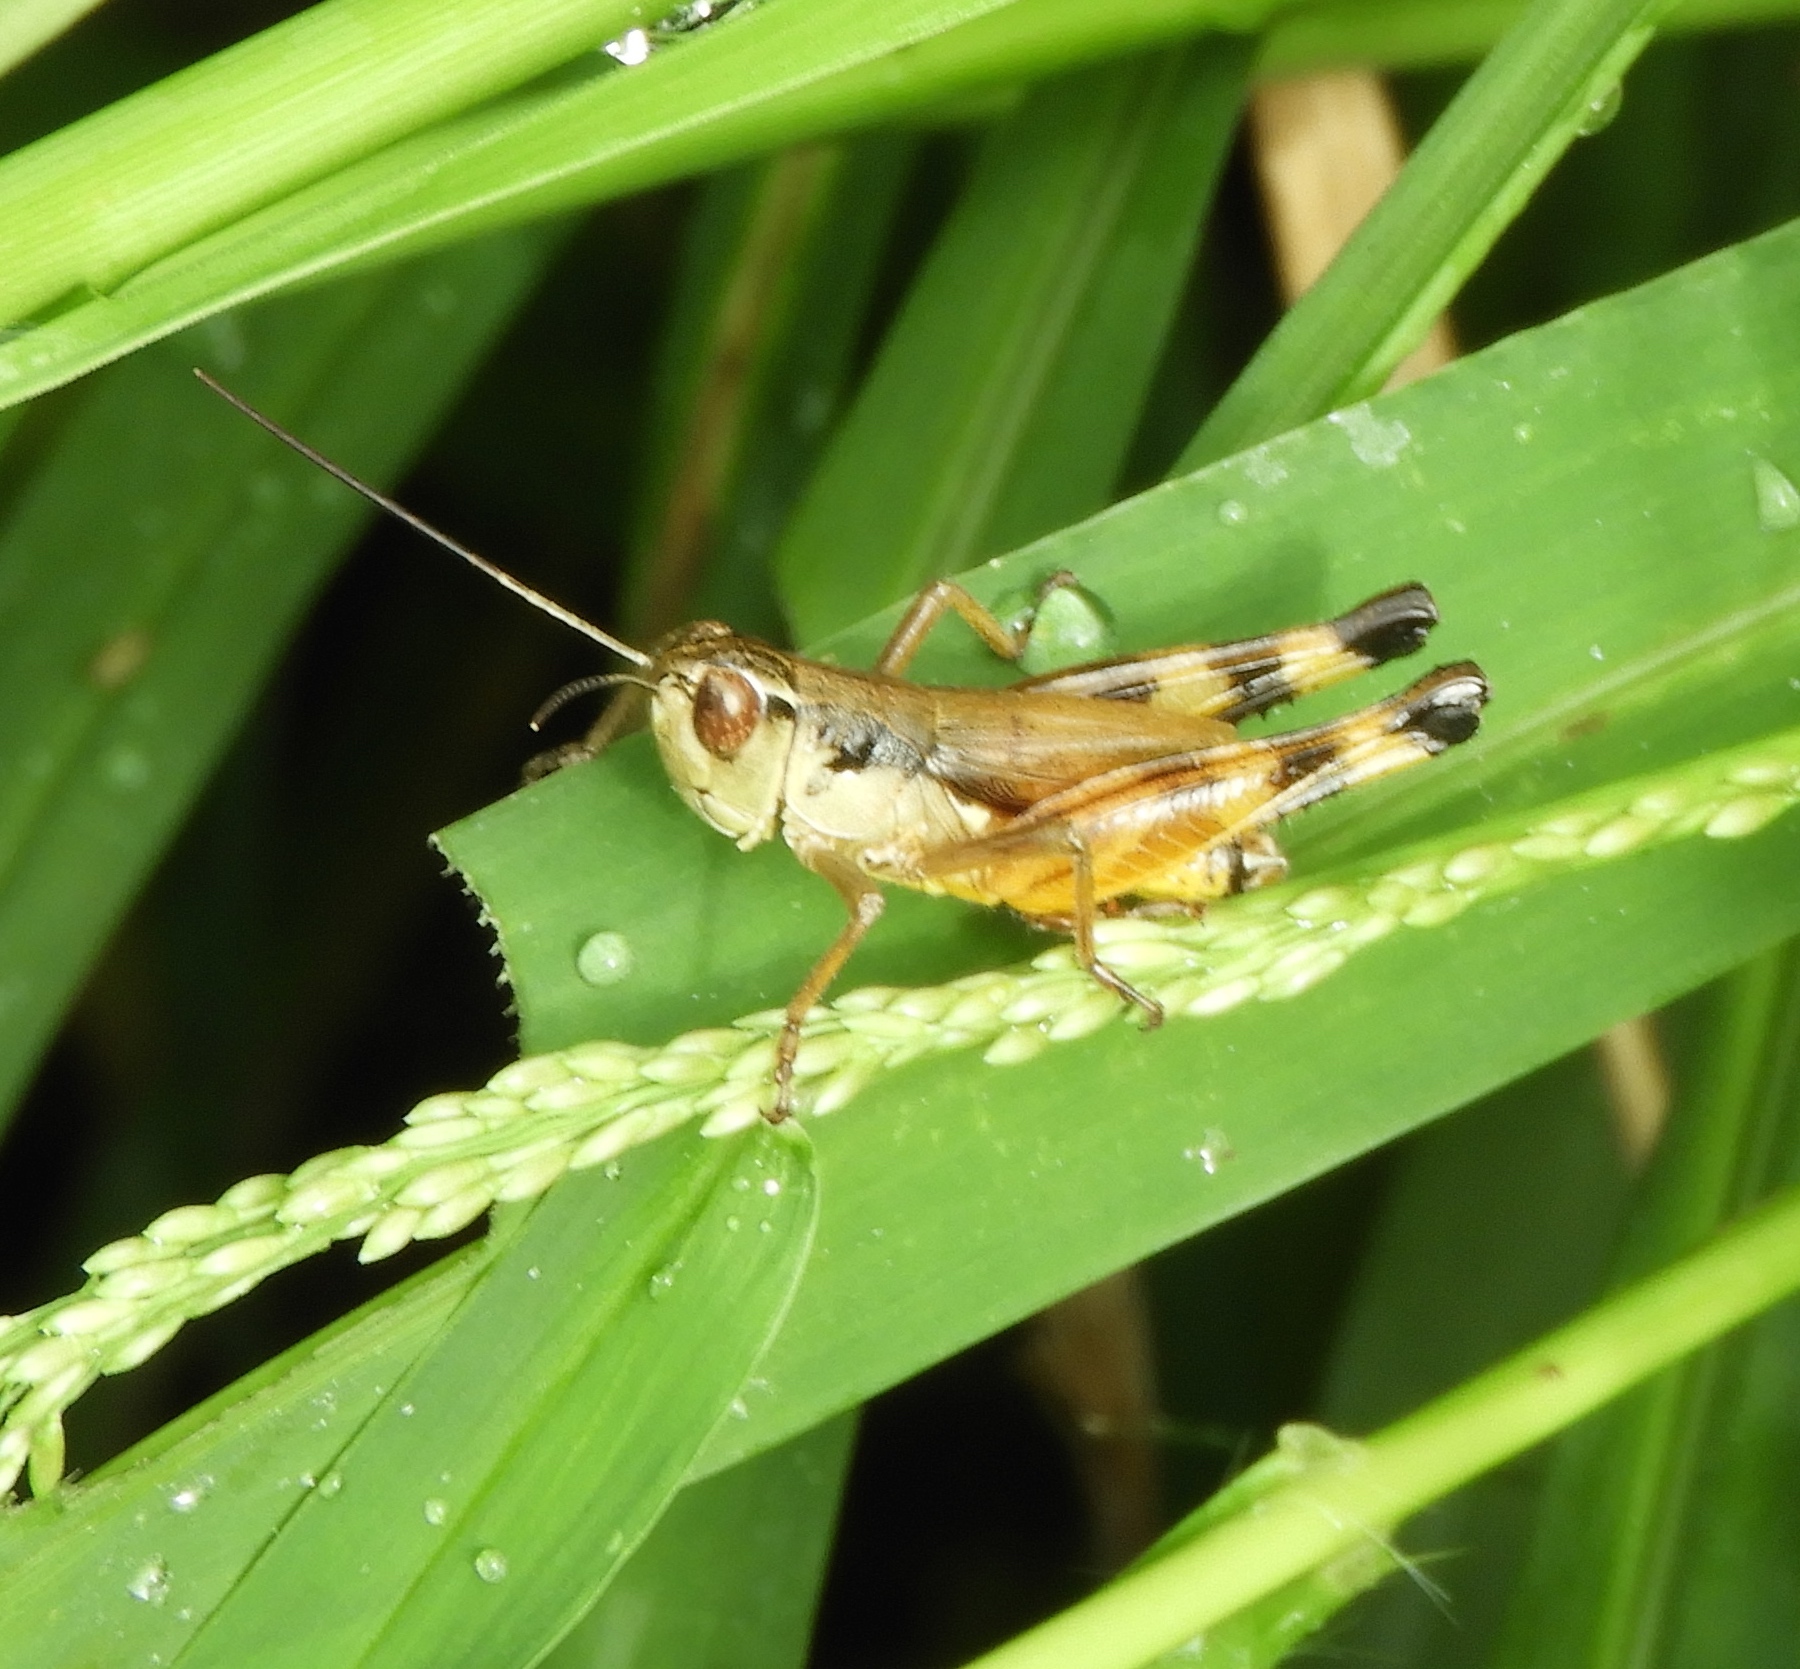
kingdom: Animalia
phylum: Arthropoda
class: Insecta
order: Orthoptera
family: Acrididae
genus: Boopedon
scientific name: Boopedon flaviventris
